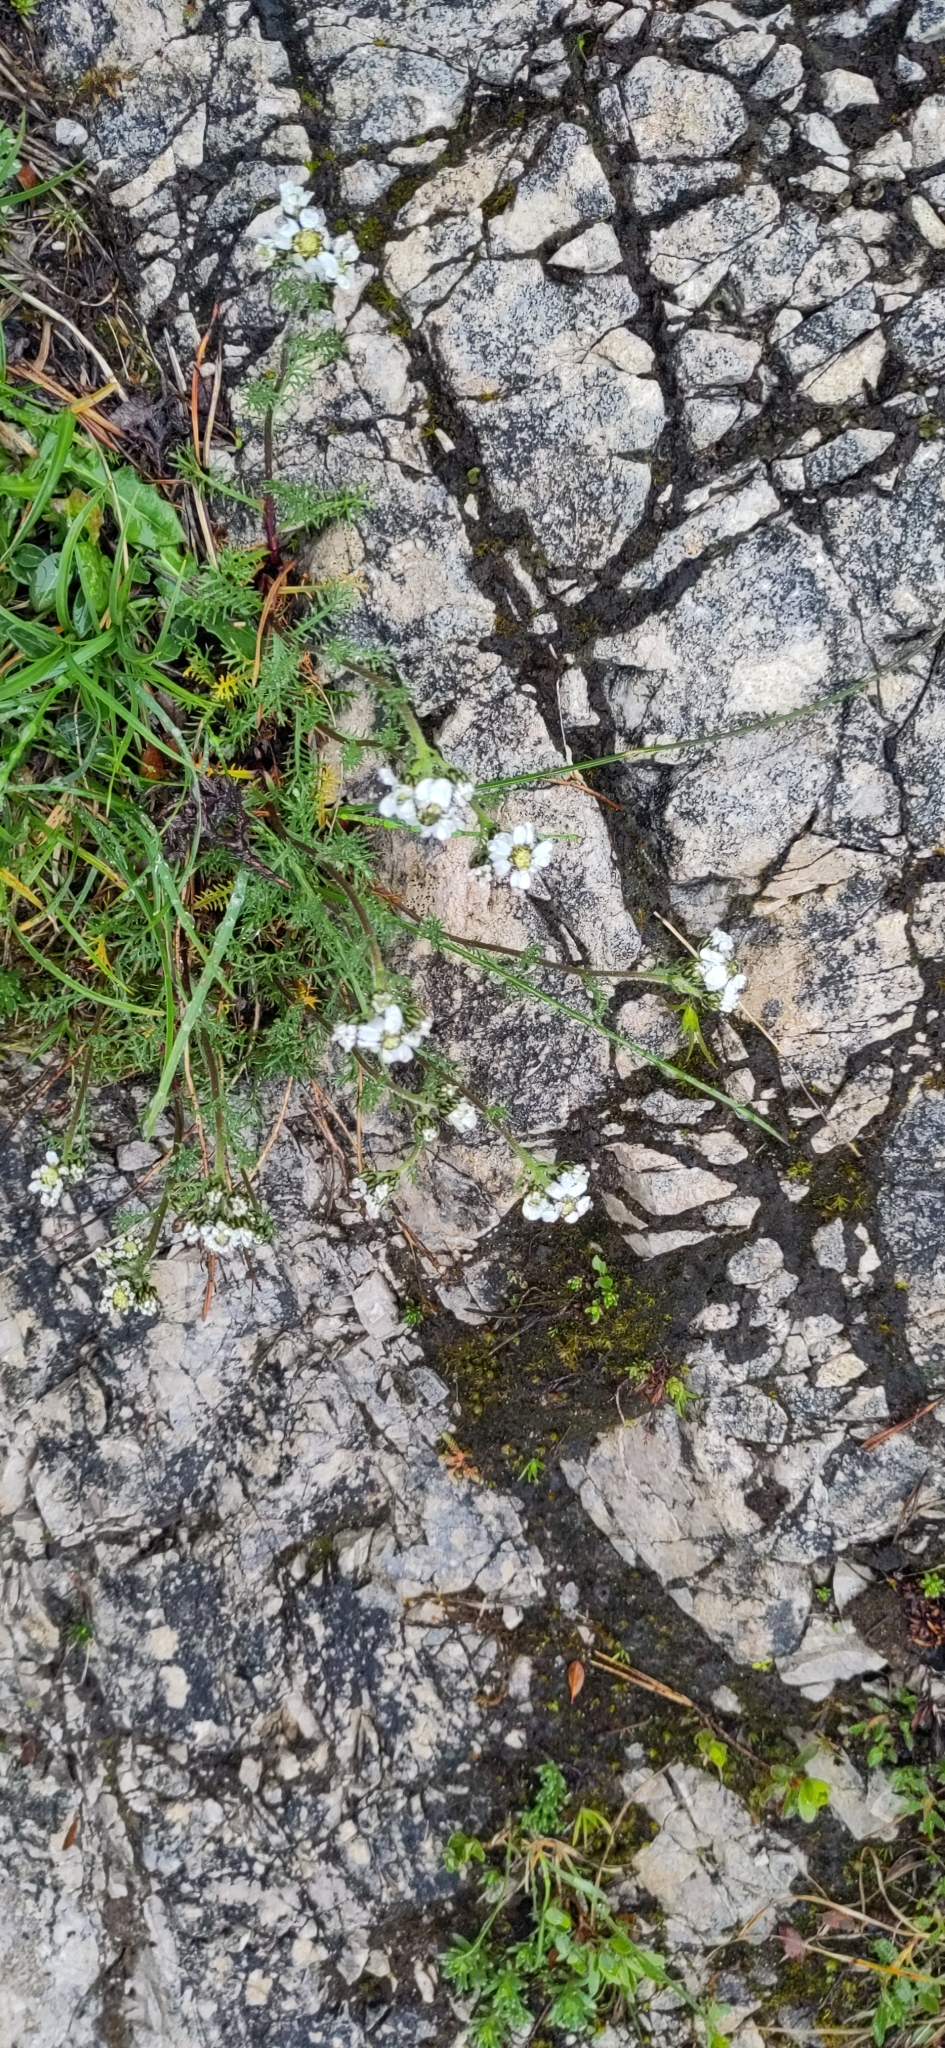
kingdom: Plantae
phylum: Tracheophyta
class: Magnoliopsida
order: Asterales
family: Asteraceae
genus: Achillea
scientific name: Achillea atrata
